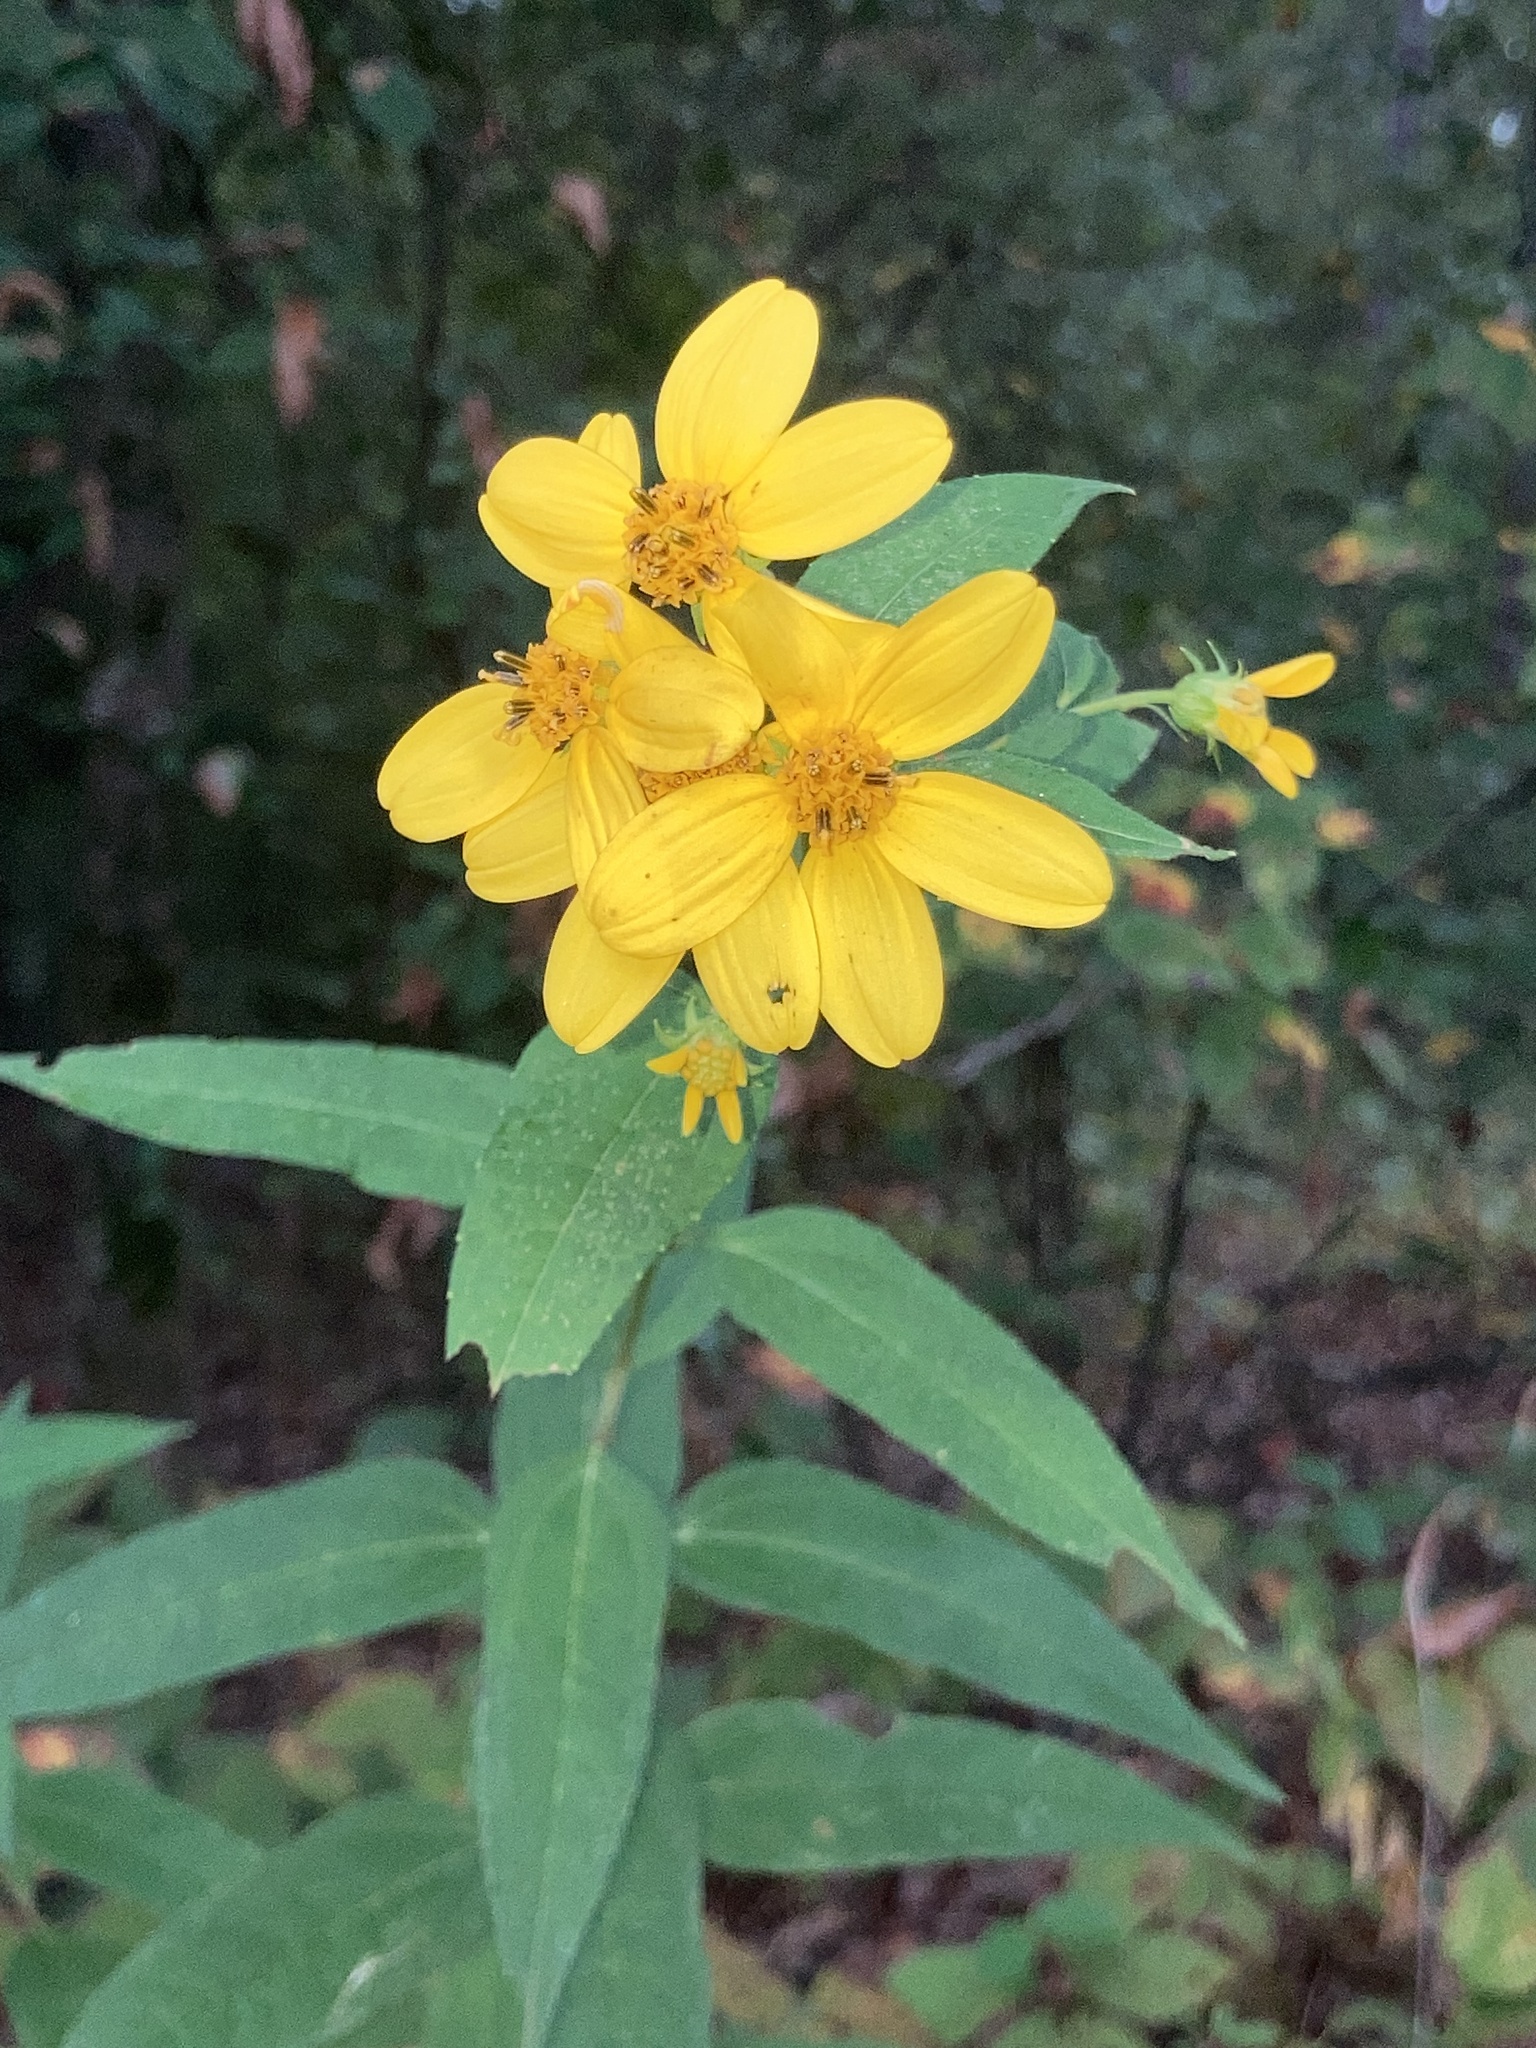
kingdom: Plantae
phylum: Tracheophyta
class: Magnoliopsida
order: Asterales
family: Asteraceae
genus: Helianthus
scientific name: Helianthus microcephalus
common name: Woodland sunflower
